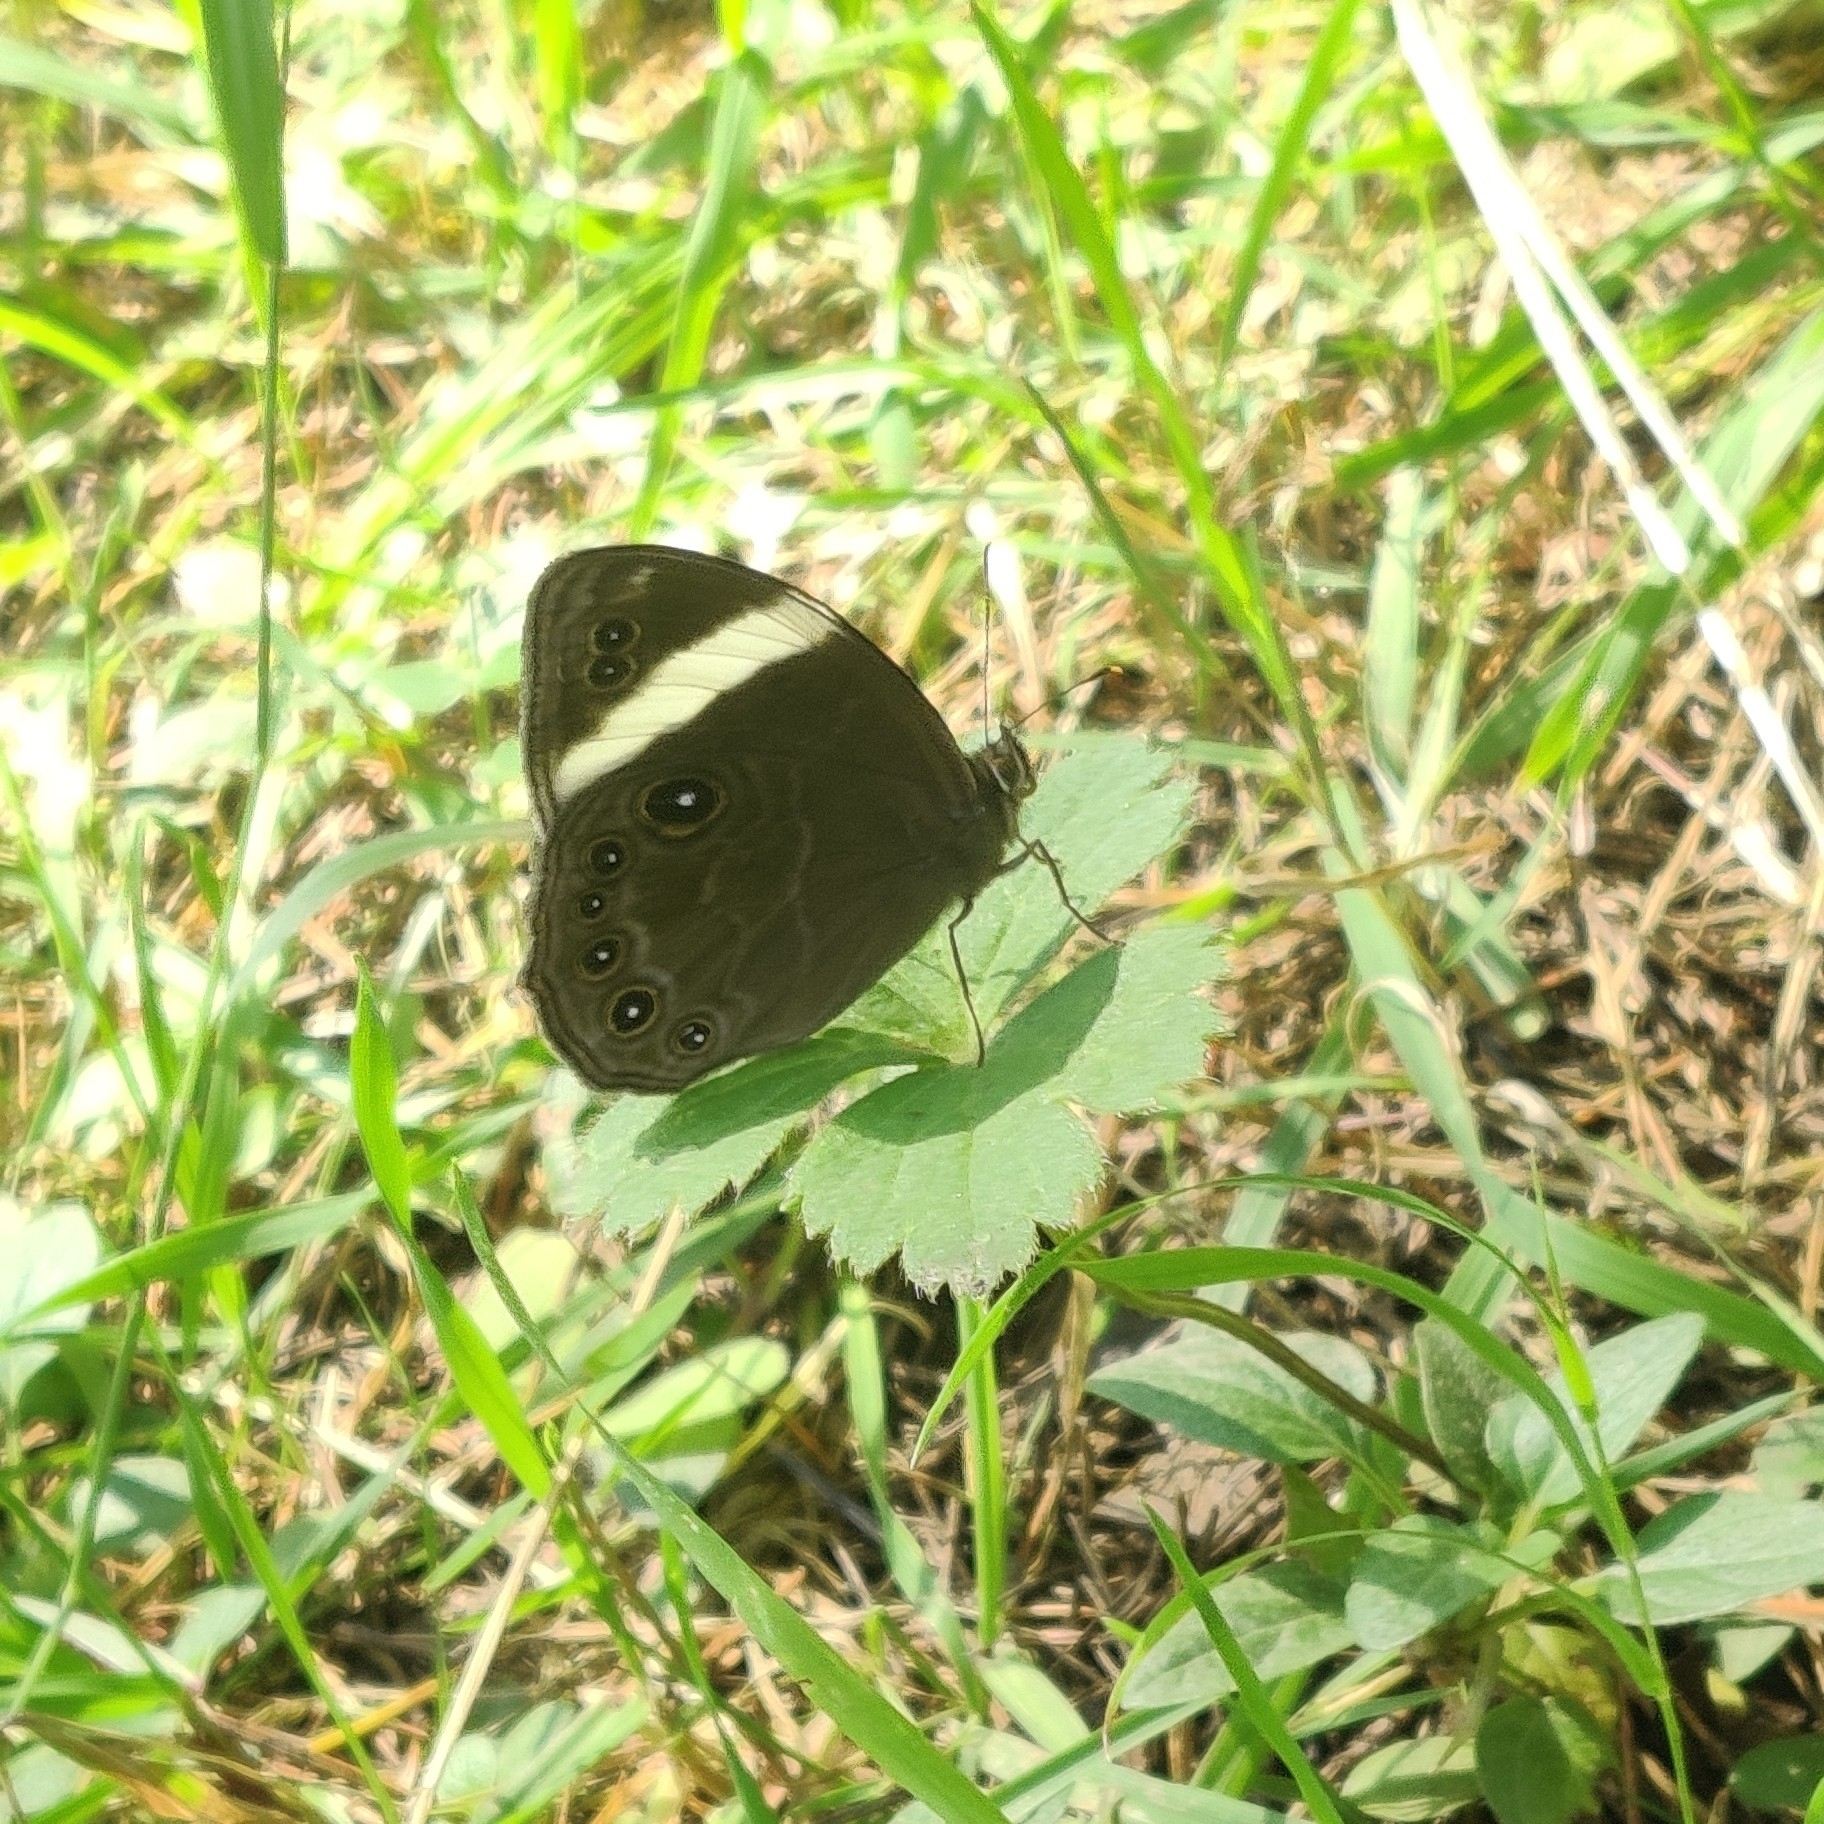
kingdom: Animalia
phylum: Arthropoda
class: Insecta
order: Lepidoptera
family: Nymphalidae
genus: Lethe
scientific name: Lethe verma
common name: Straight-banded treebrown
